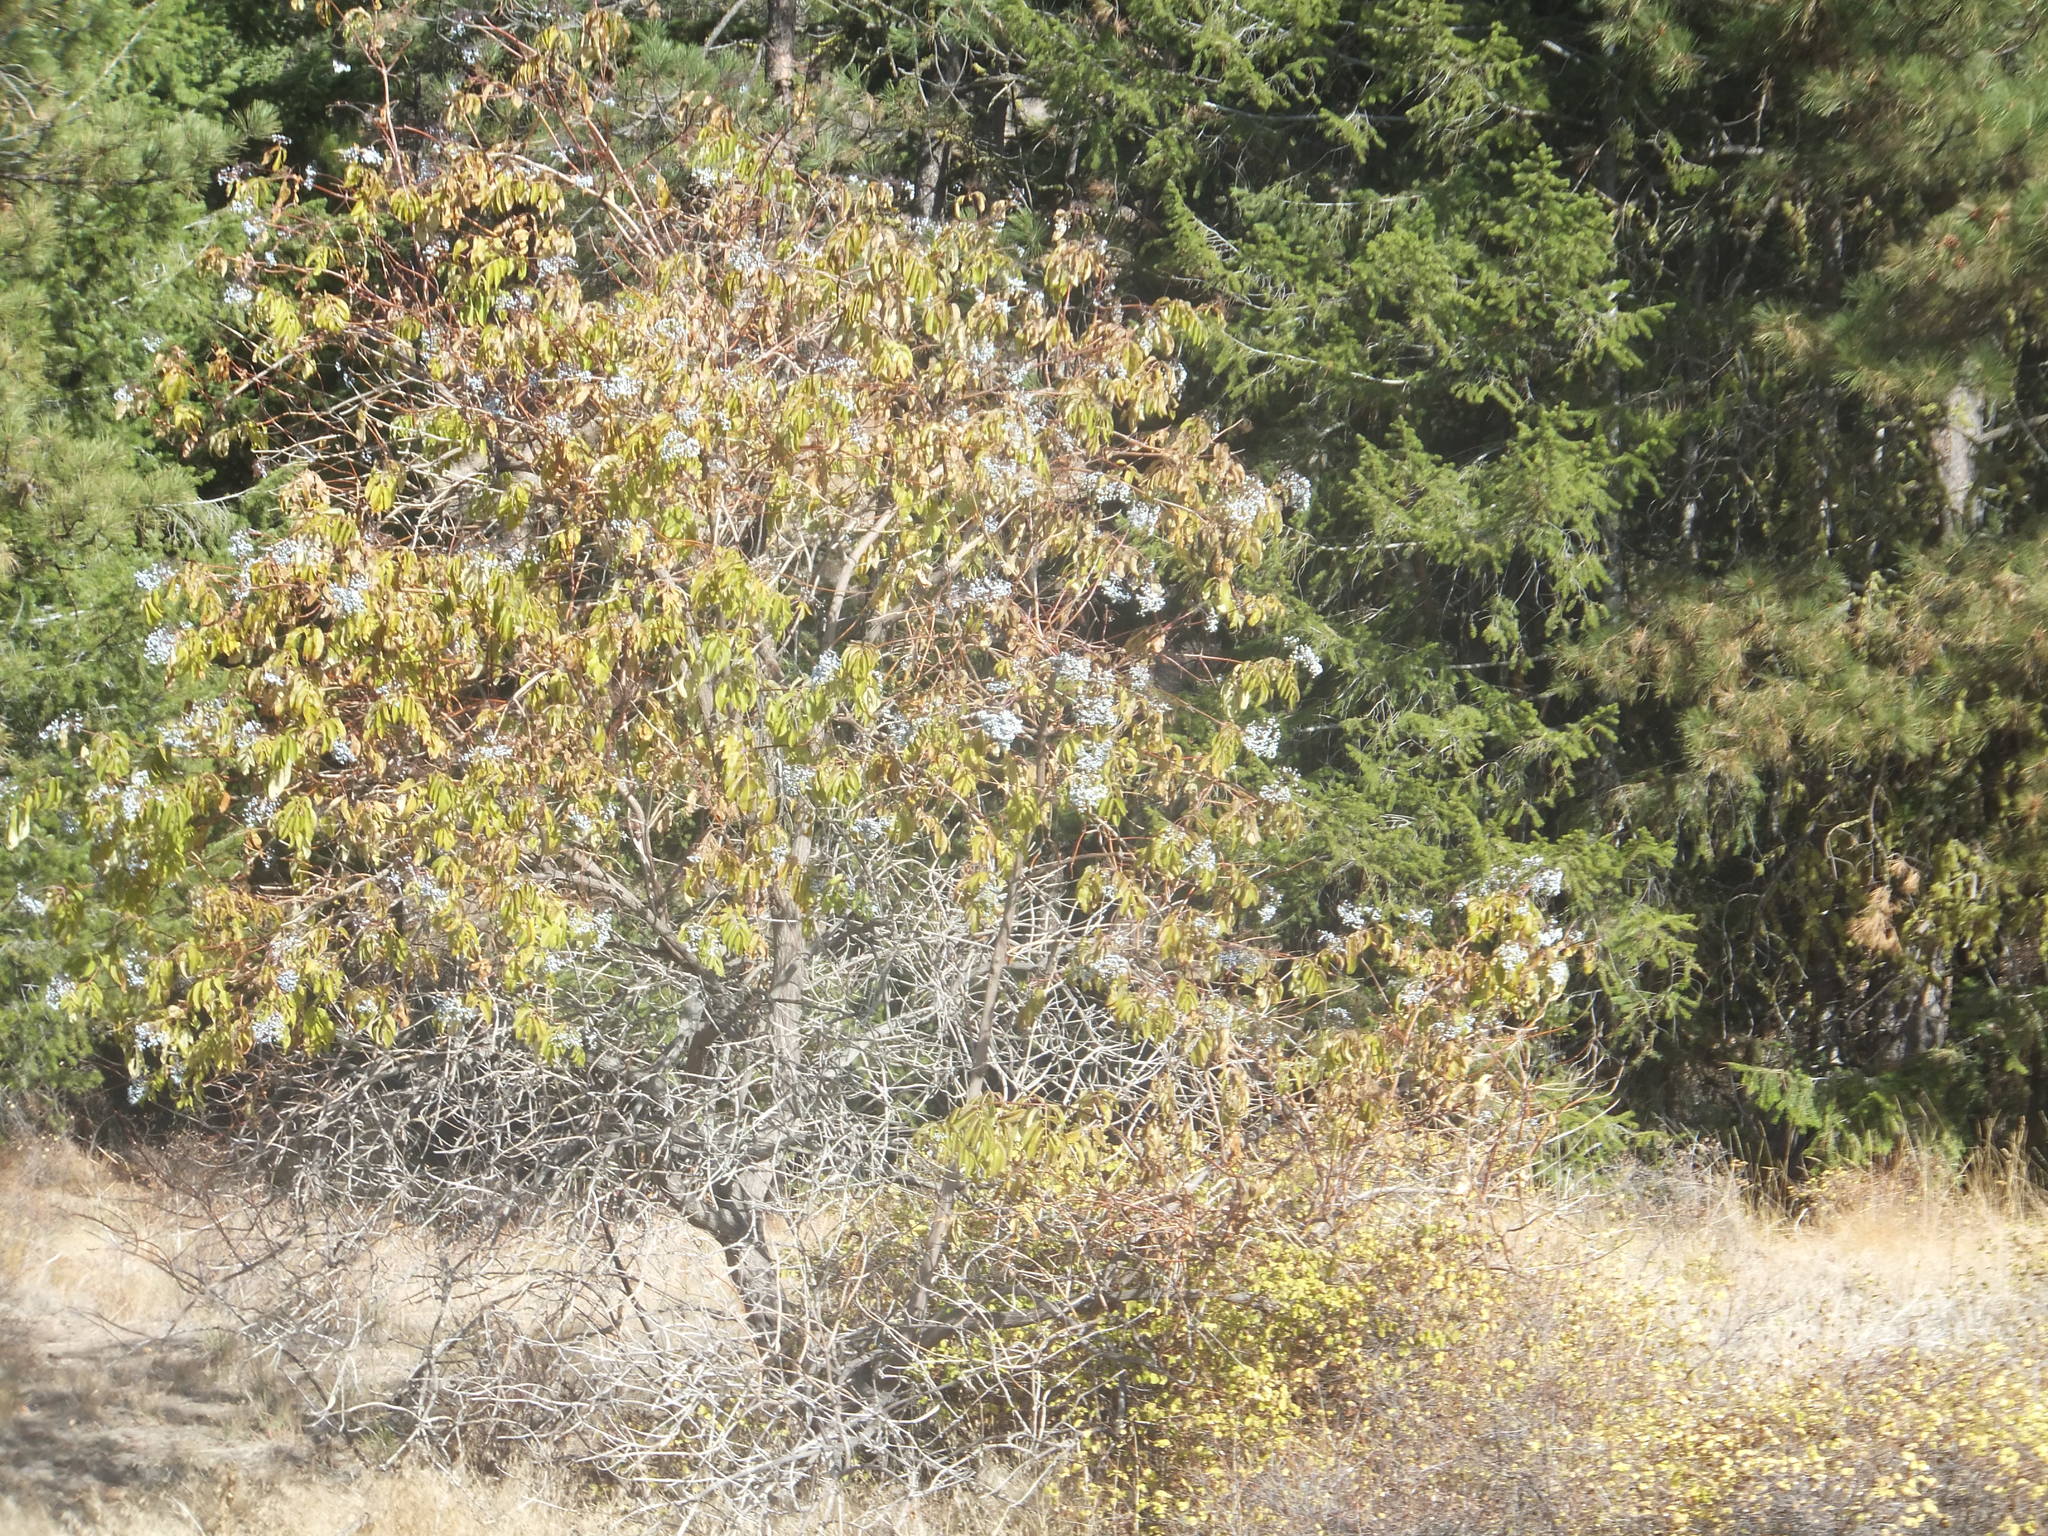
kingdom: Plantae
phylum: Tracheophyta
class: Magnoliopsida
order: Dipsacales
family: Viburnaceae
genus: Sambucus
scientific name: Sambucus cerulea
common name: Blue elder
